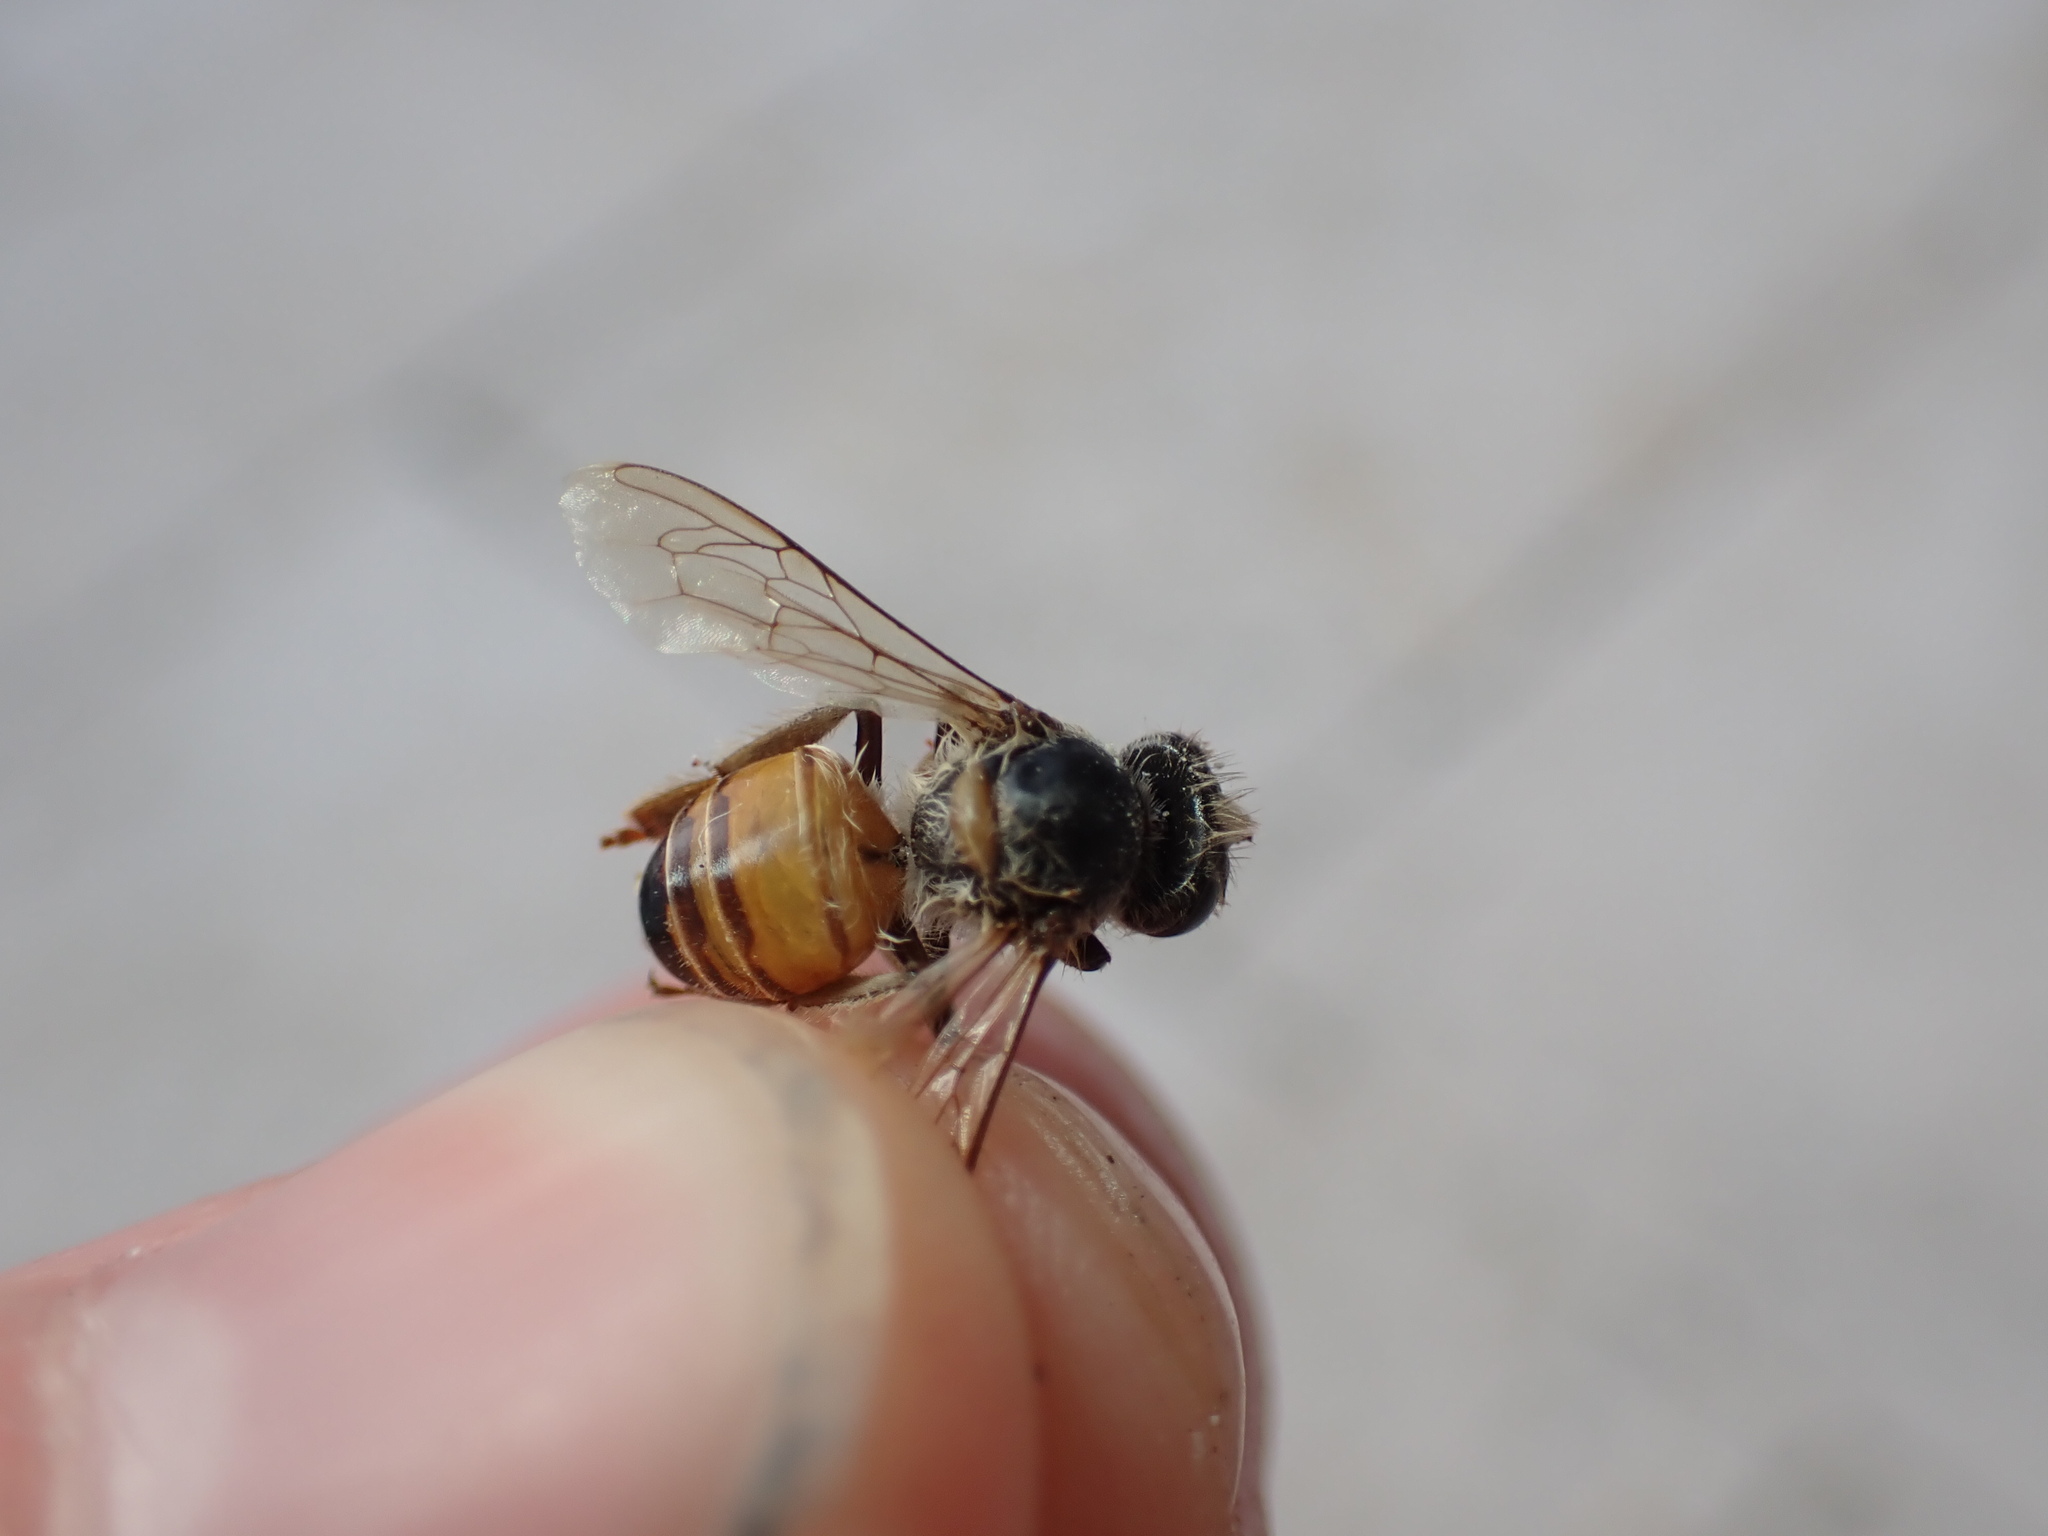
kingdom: Animalia
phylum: Arthropoda
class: Insecta
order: Hymenoptera
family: Apidae
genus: Apis
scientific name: Apis mellifera
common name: Honey bee
